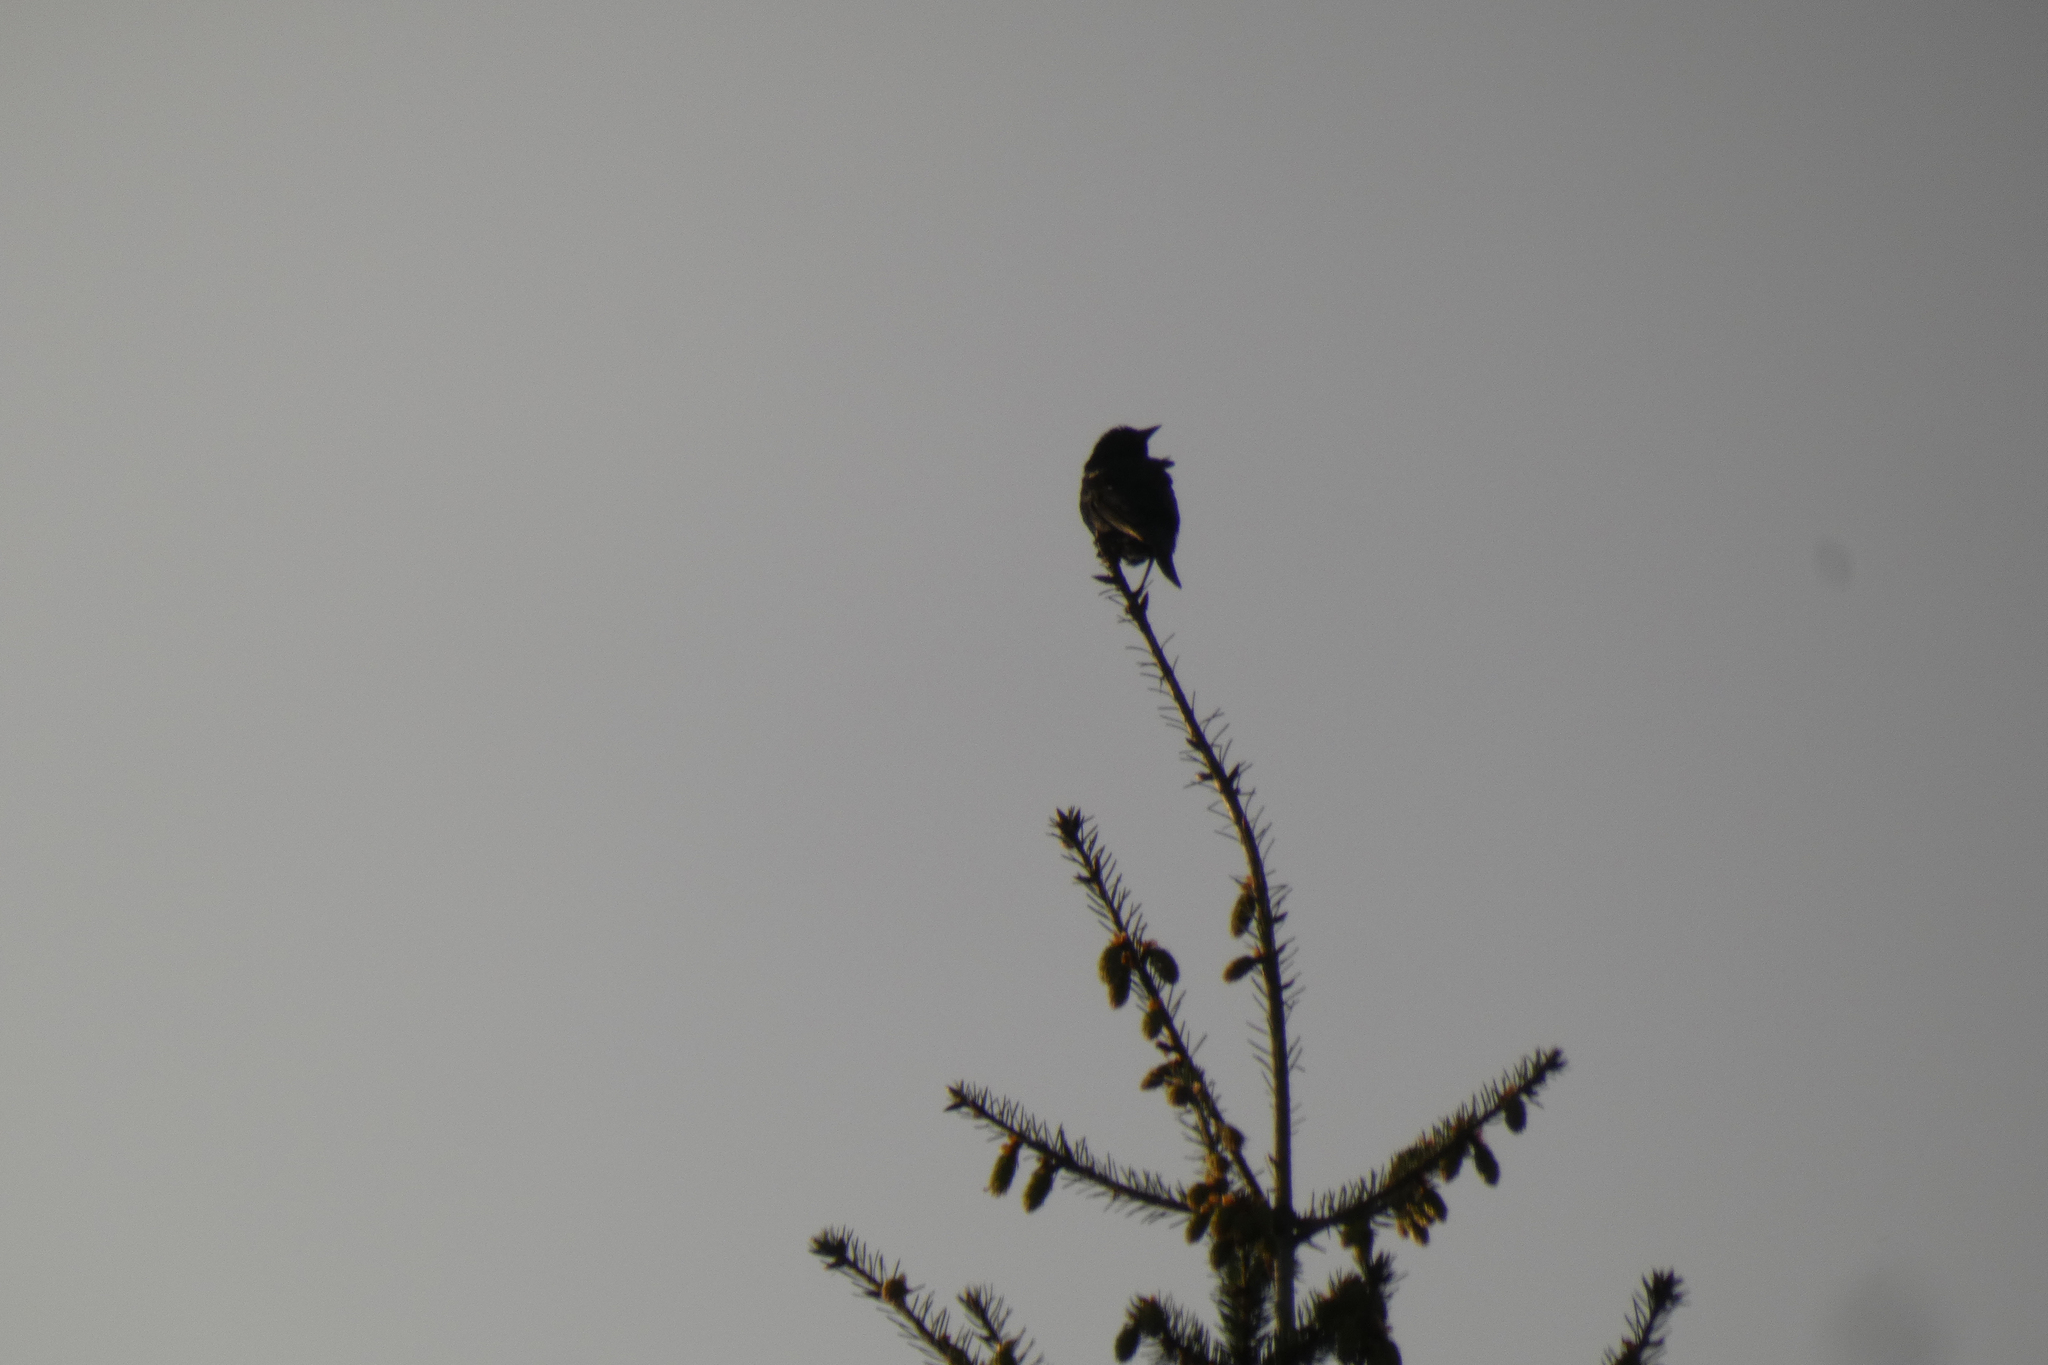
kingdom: Animalia
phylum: Chordata
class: Aves
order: Passeriformes
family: Icteridae
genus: Agelaius
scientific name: Agelaius phoeniceus
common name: Red-winged blackbird
